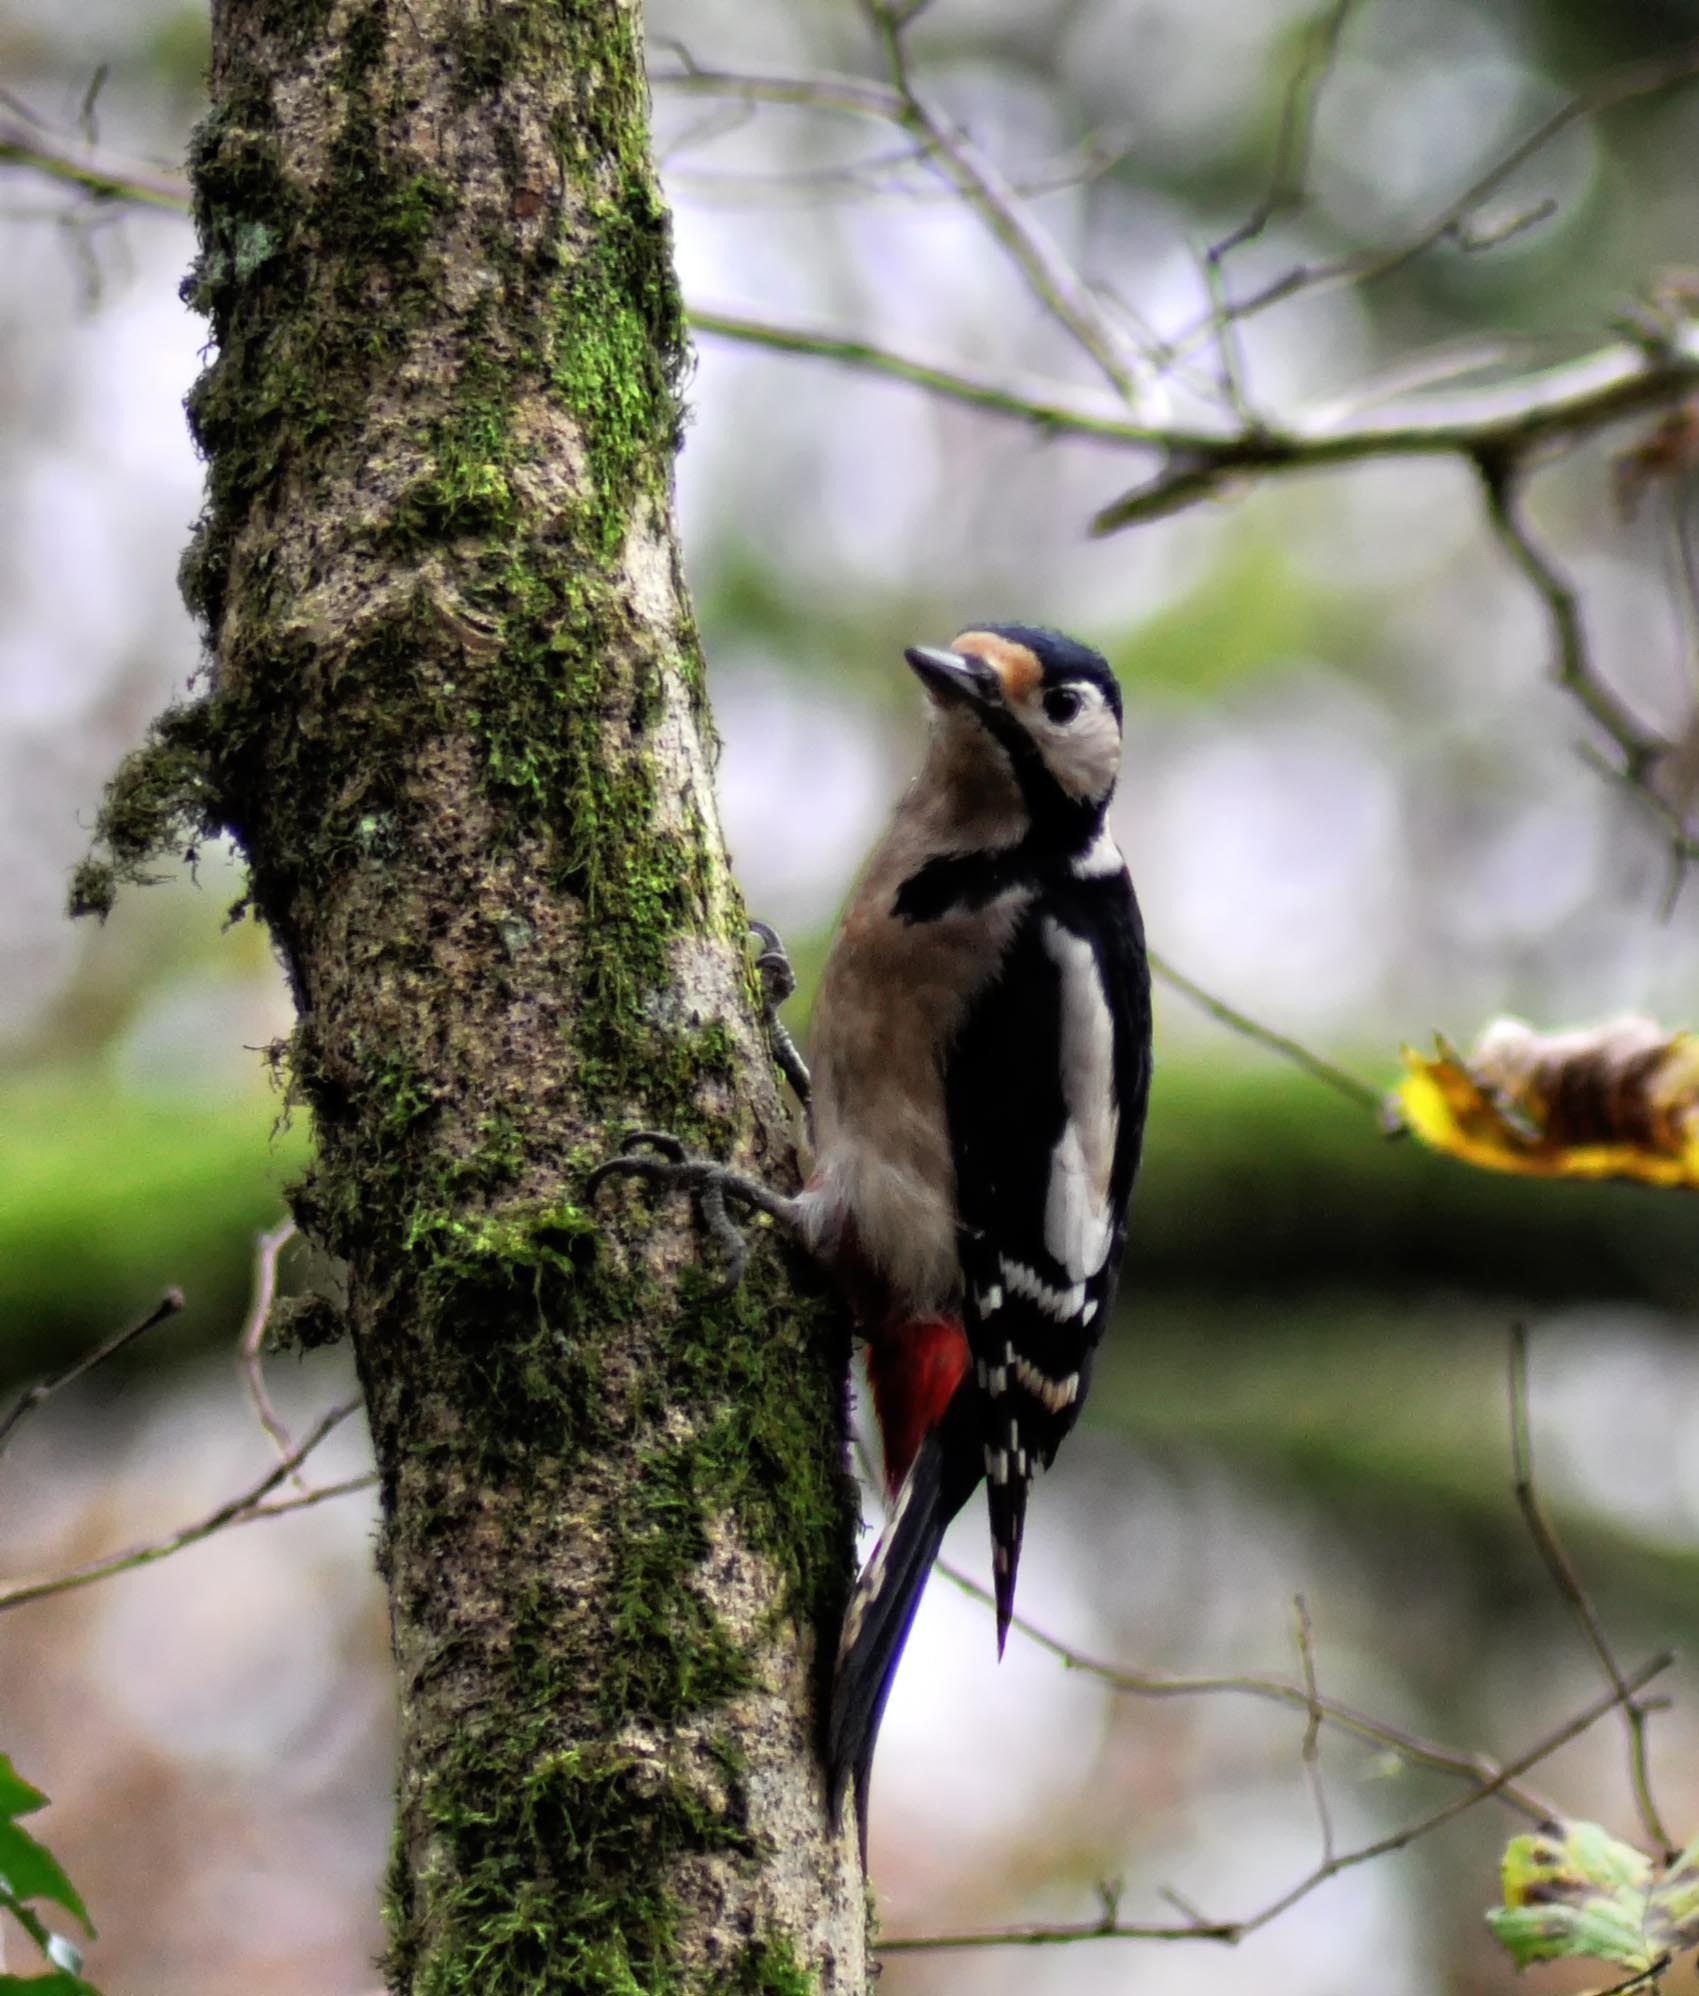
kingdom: Animalia
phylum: Chordata
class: Aves
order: Piciformes
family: Picidae
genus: Dendrocopos
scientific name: Dendrocopos major
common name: Great spotted woodpecker
